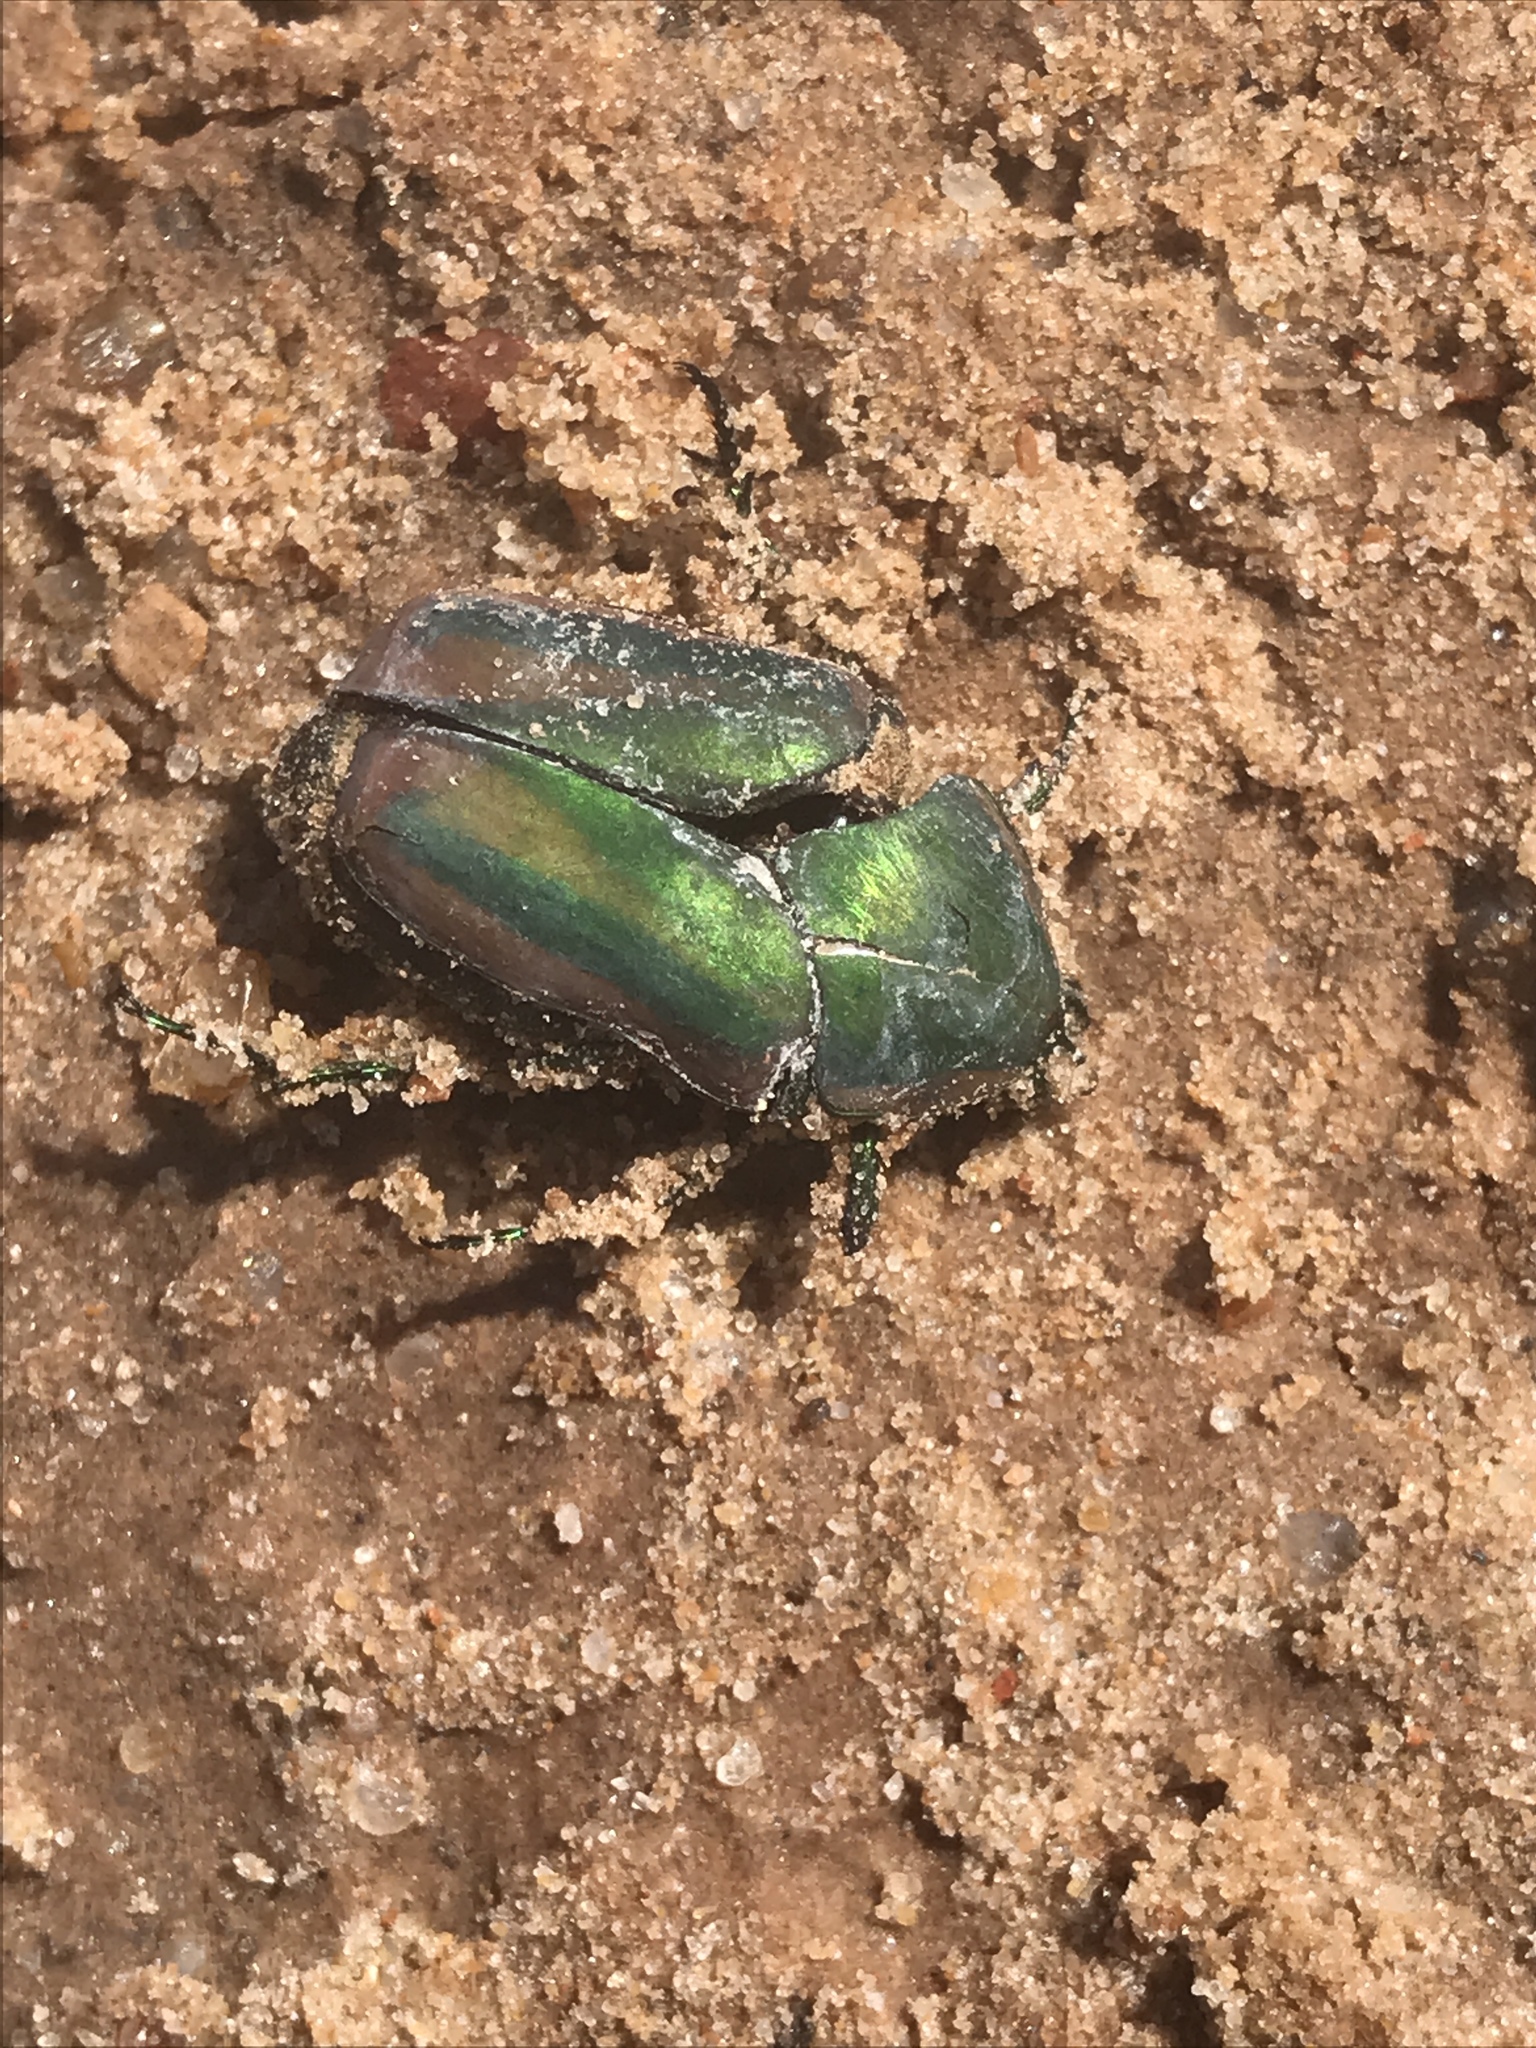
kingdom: Animalia
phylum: Arthropoda
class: Insecta
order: Coleoptera
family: Scarabaeidae
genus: Cotinis
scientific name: Cotinis nitida
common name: Common green june beetle
